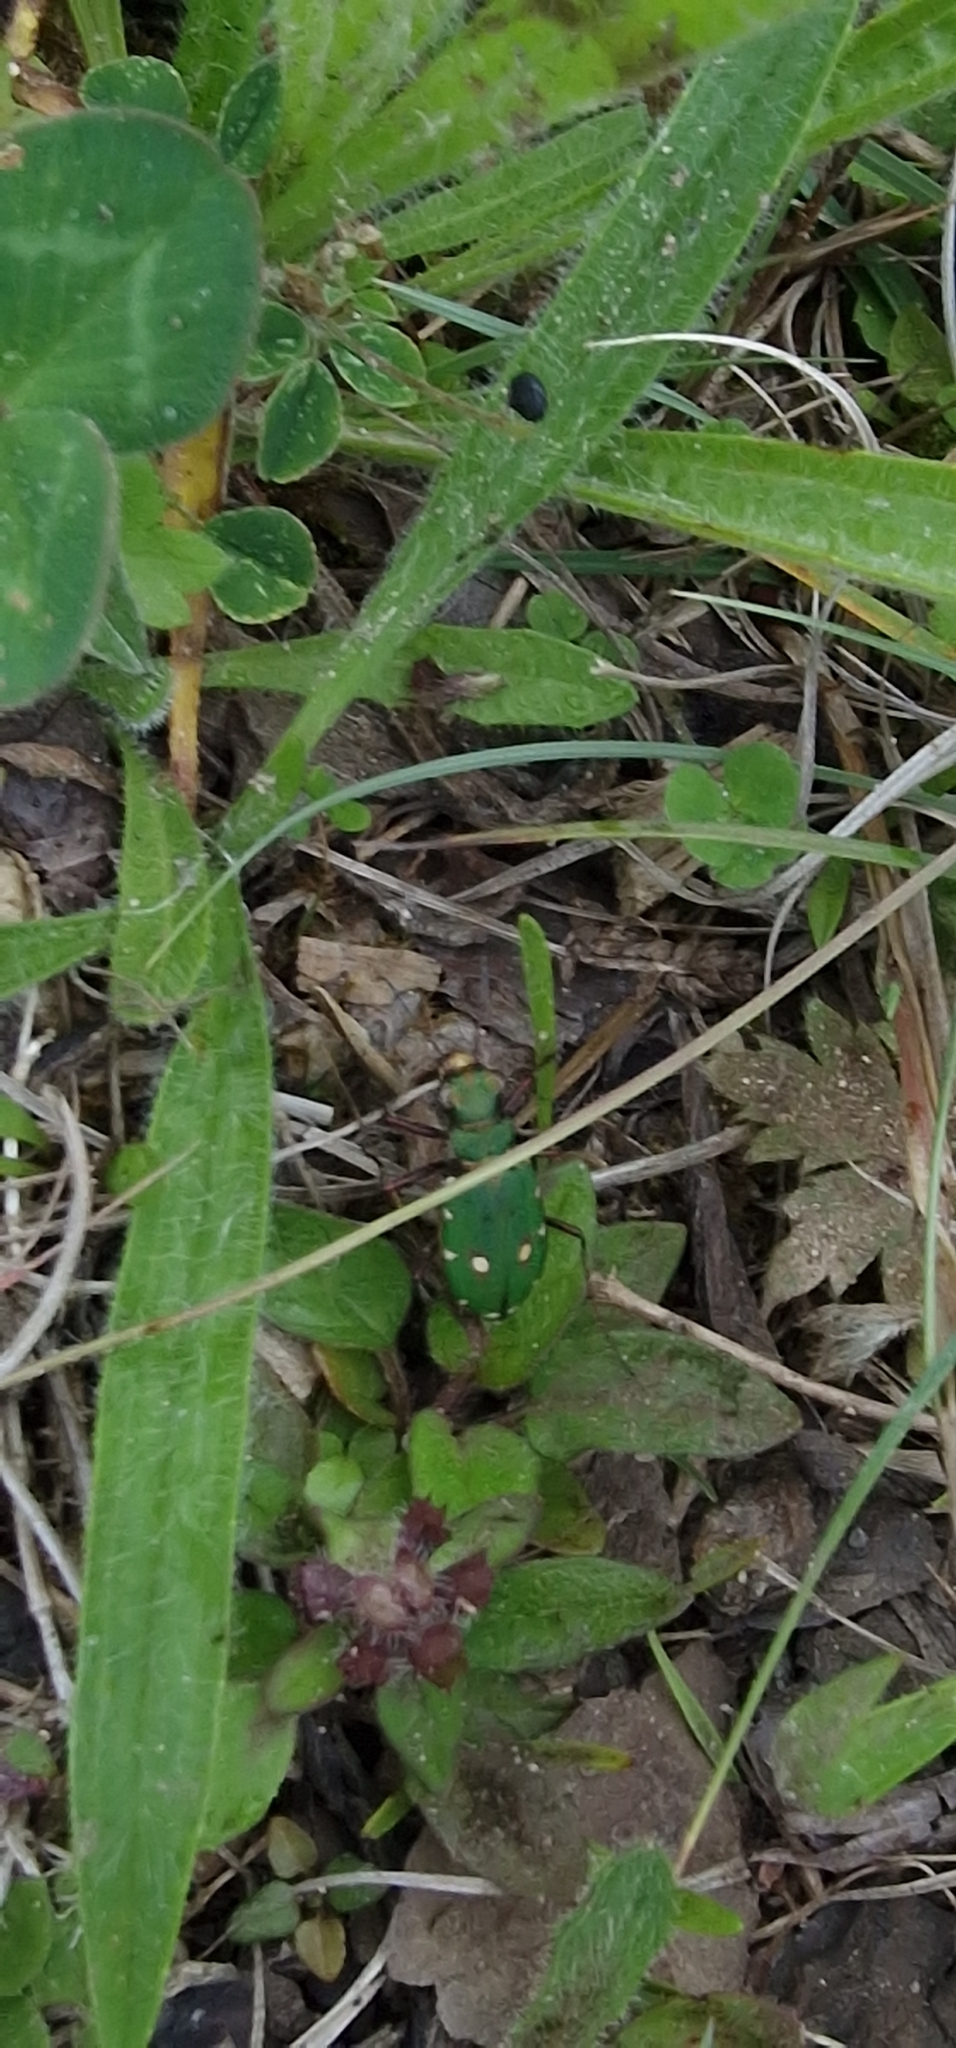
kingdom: Animalia
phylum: Arthropoda
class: Insecta
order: Coleoptera
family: Carabidae
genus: Cicindela
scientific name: Cicindela campestris
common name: Common tiger beetle
